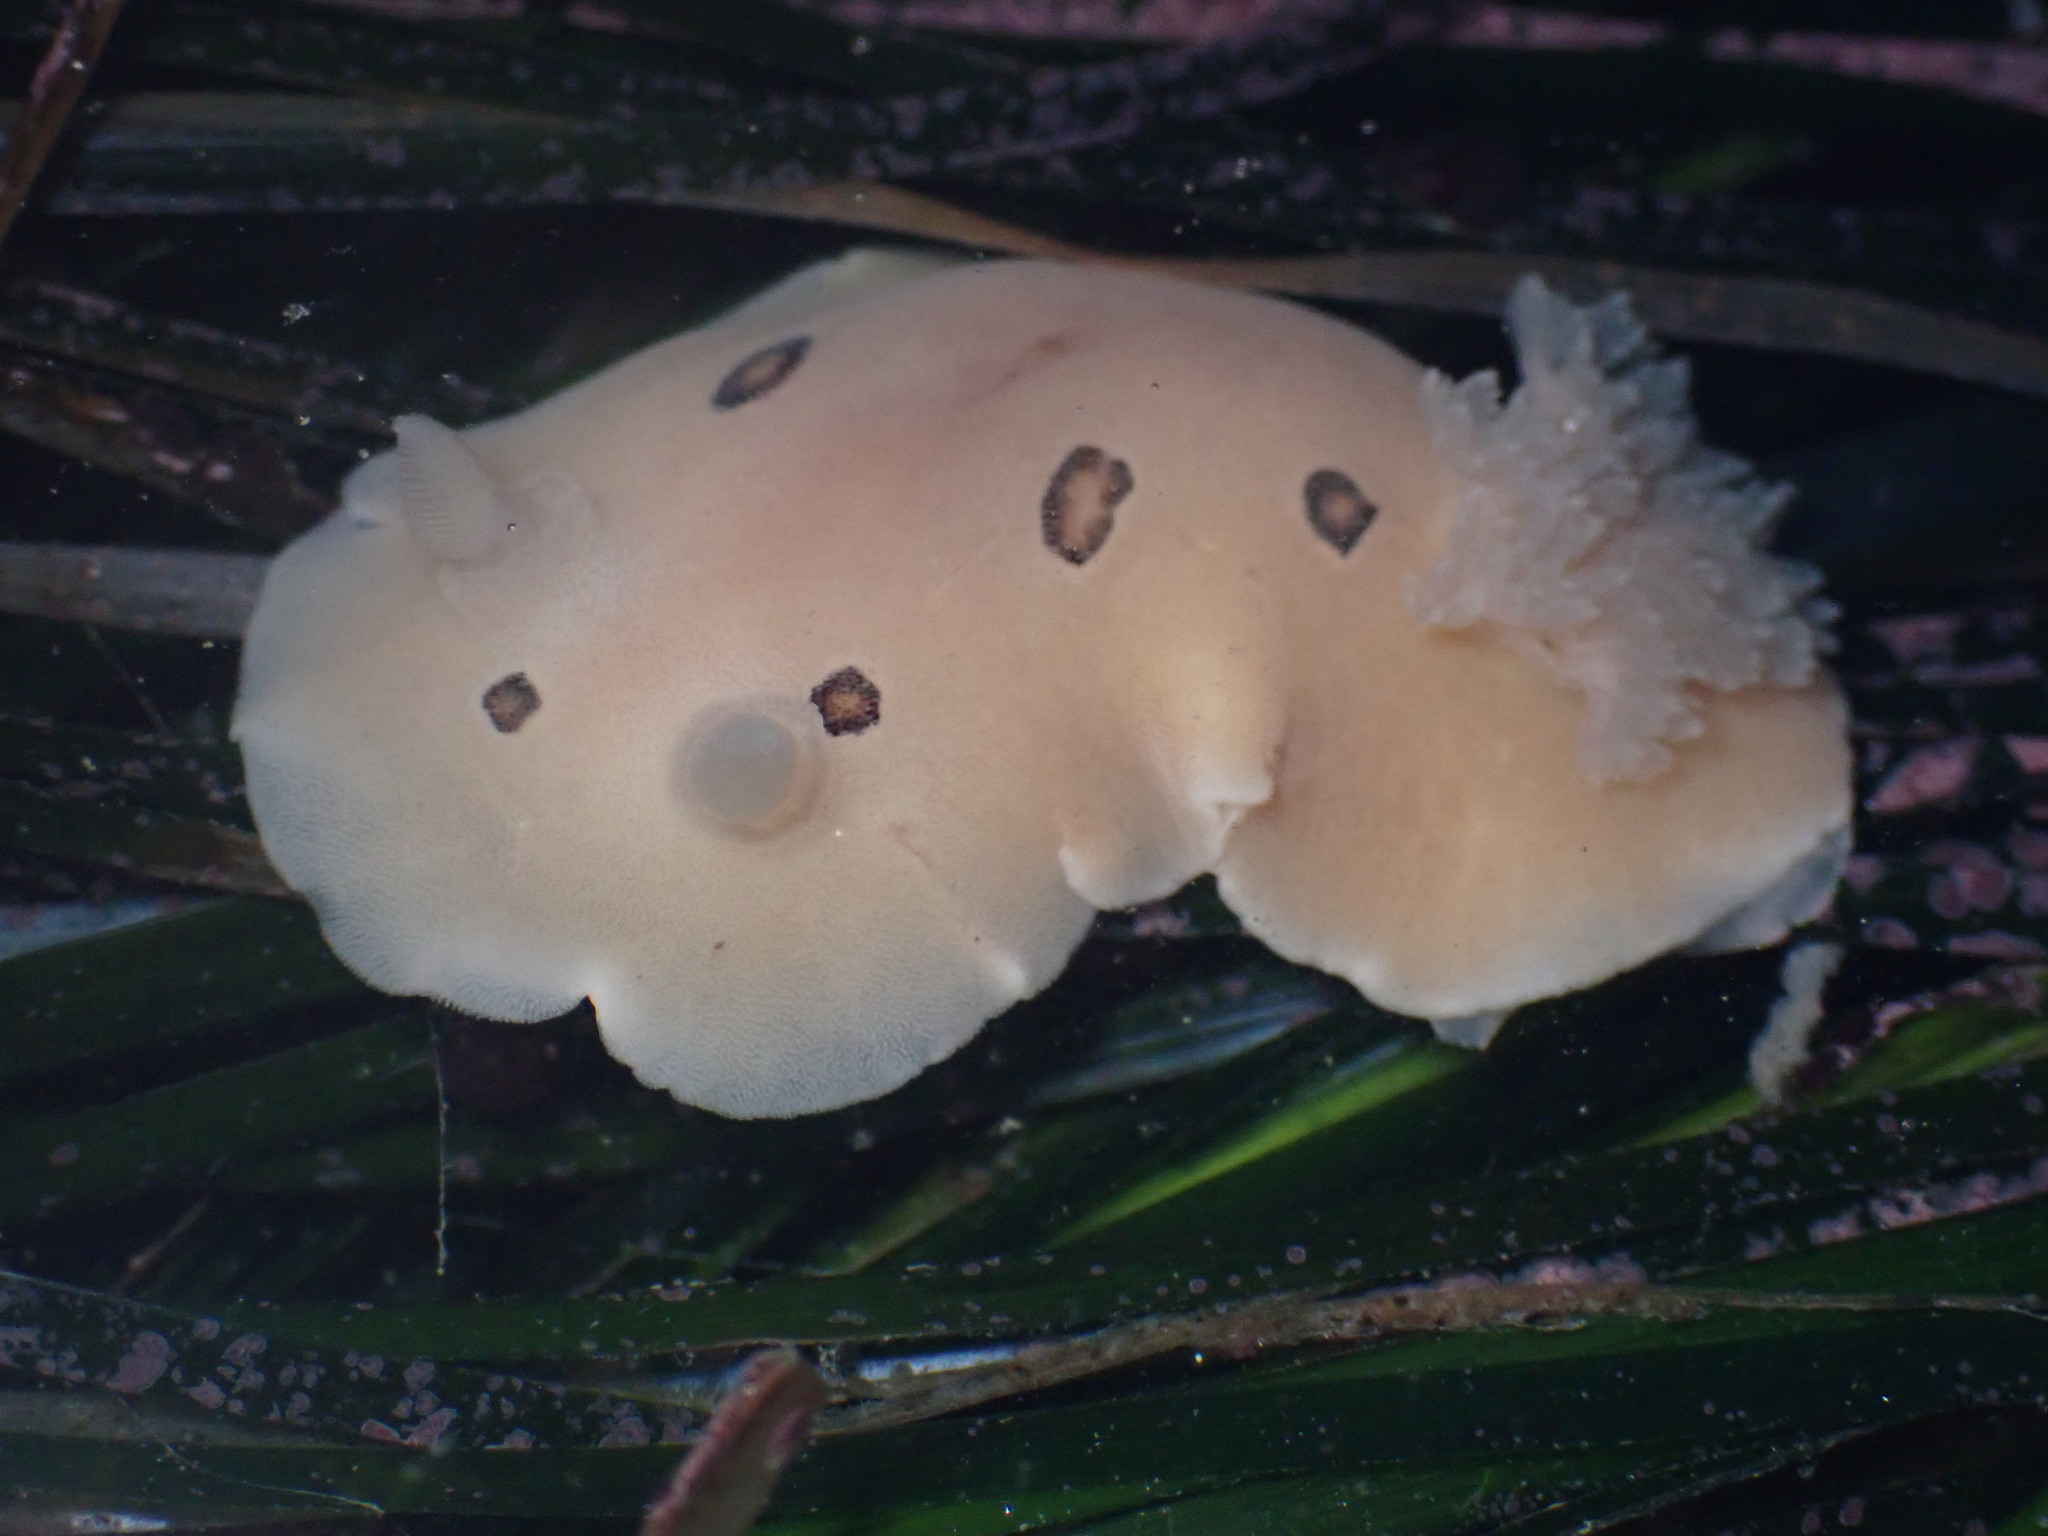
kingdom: Animalia
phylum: Mollusca
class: Gastropoda
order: Nudibranchia
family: Discodorididae
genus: Diaulula
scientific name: Diaulula sandiegensis
